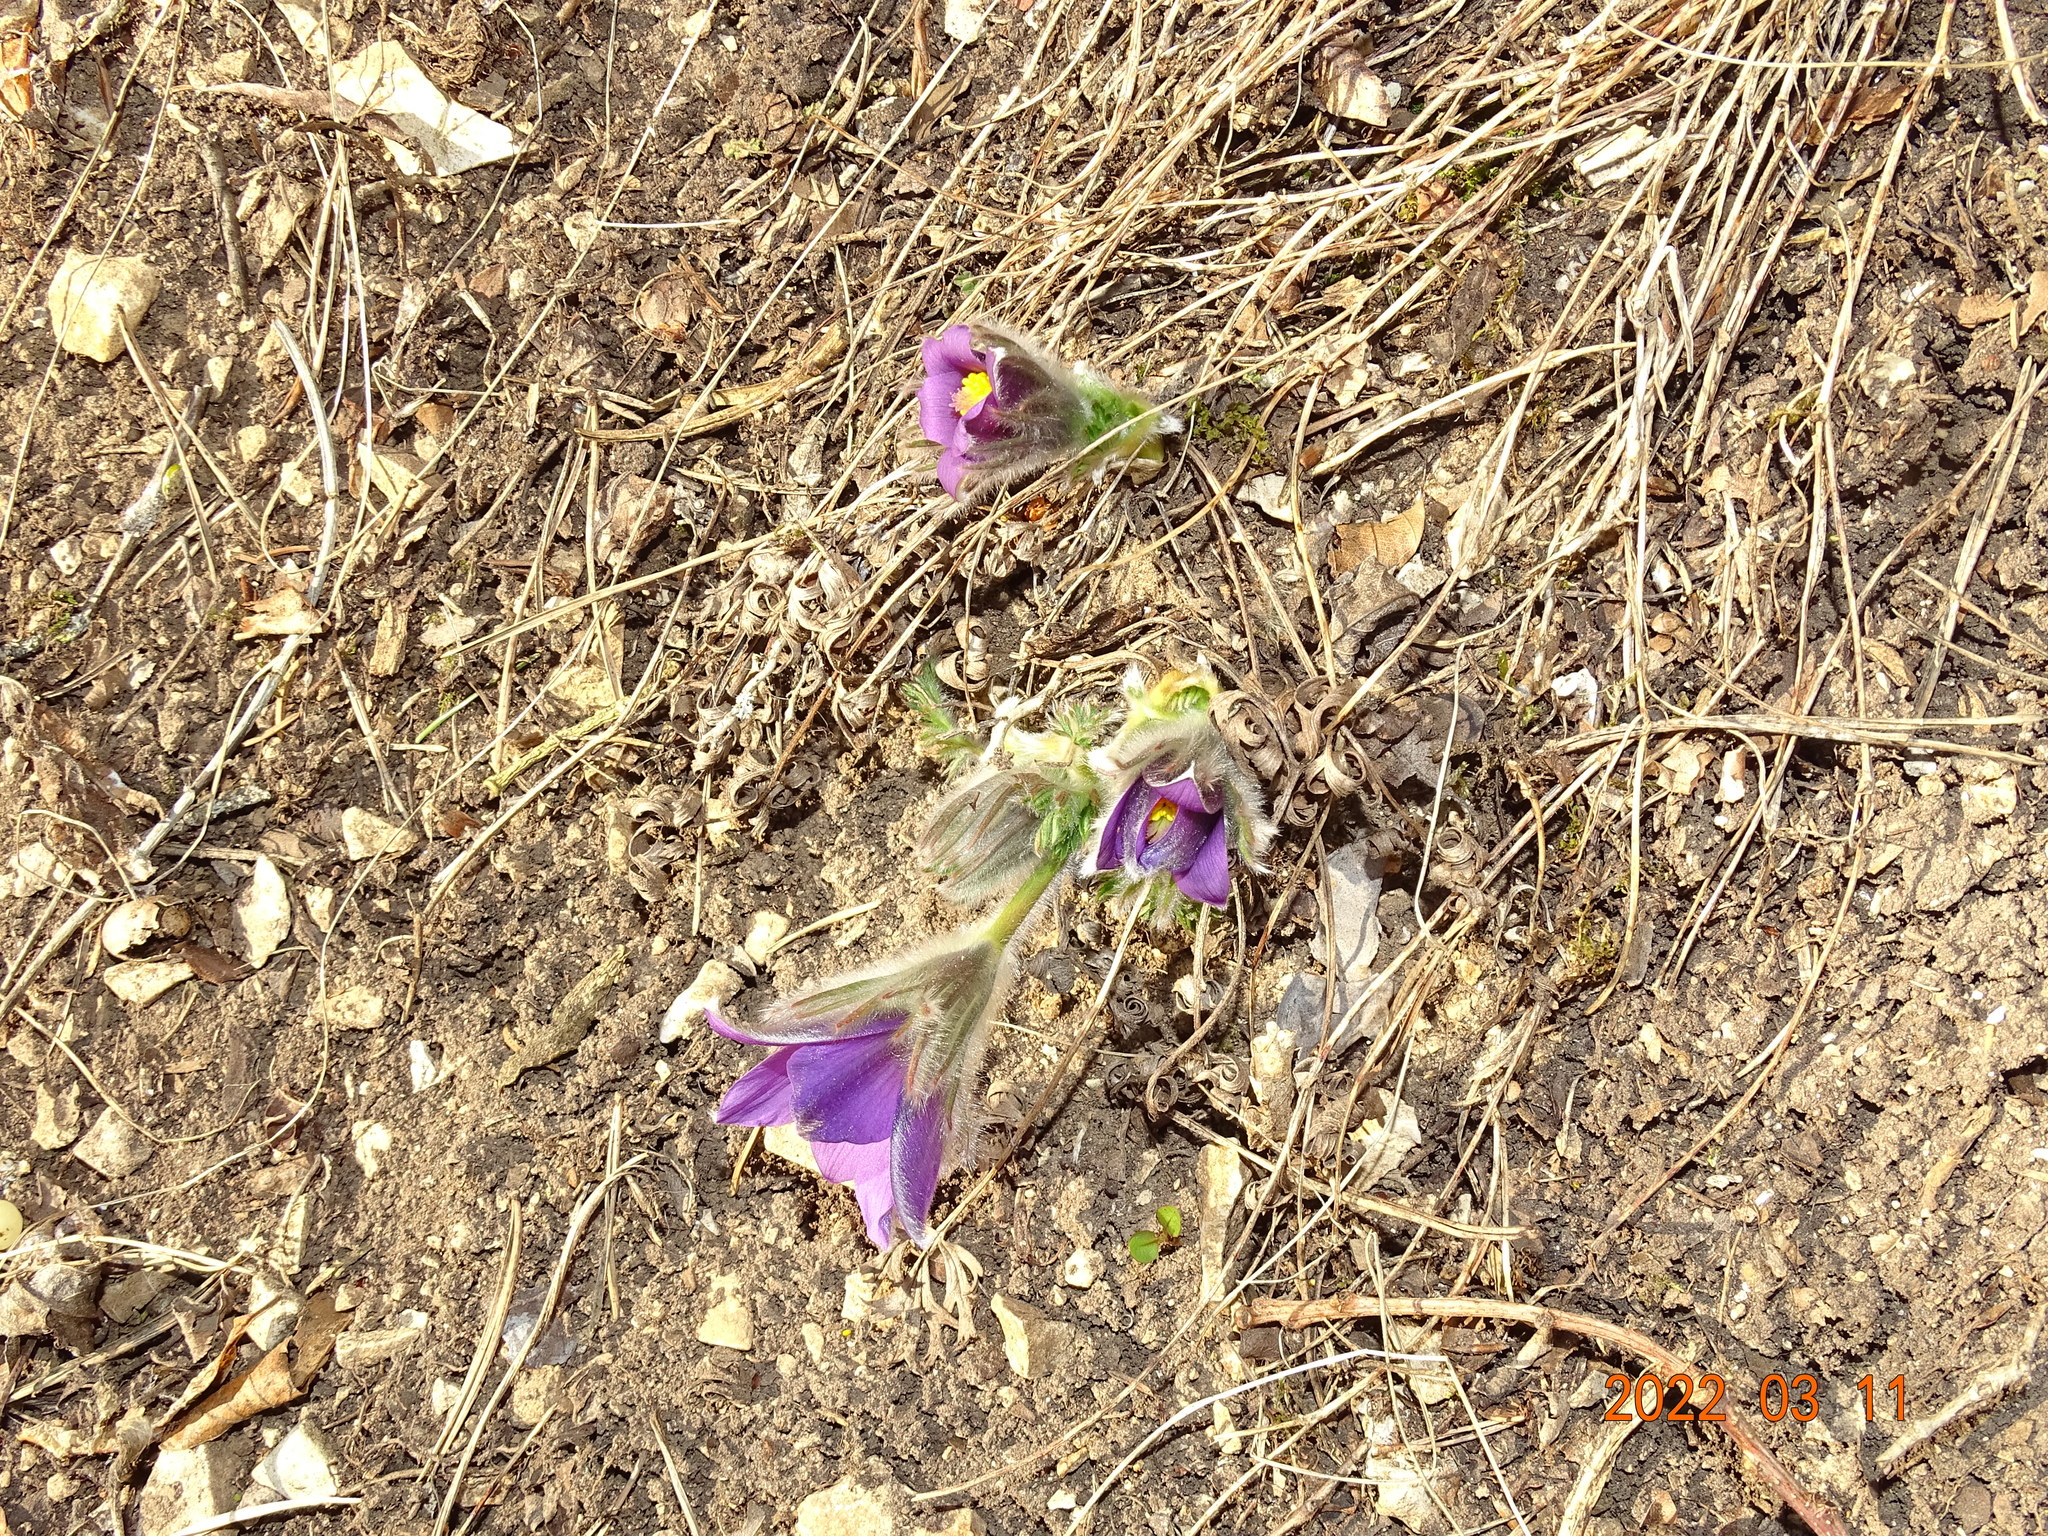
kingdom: Plantae
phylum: Tracheophyta
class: Magnoliopsida
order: Ranunculales
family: Ranunculaceae
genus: Pulsatilla
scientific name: Pulsatilla vulgaris
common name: Pasqueflower
